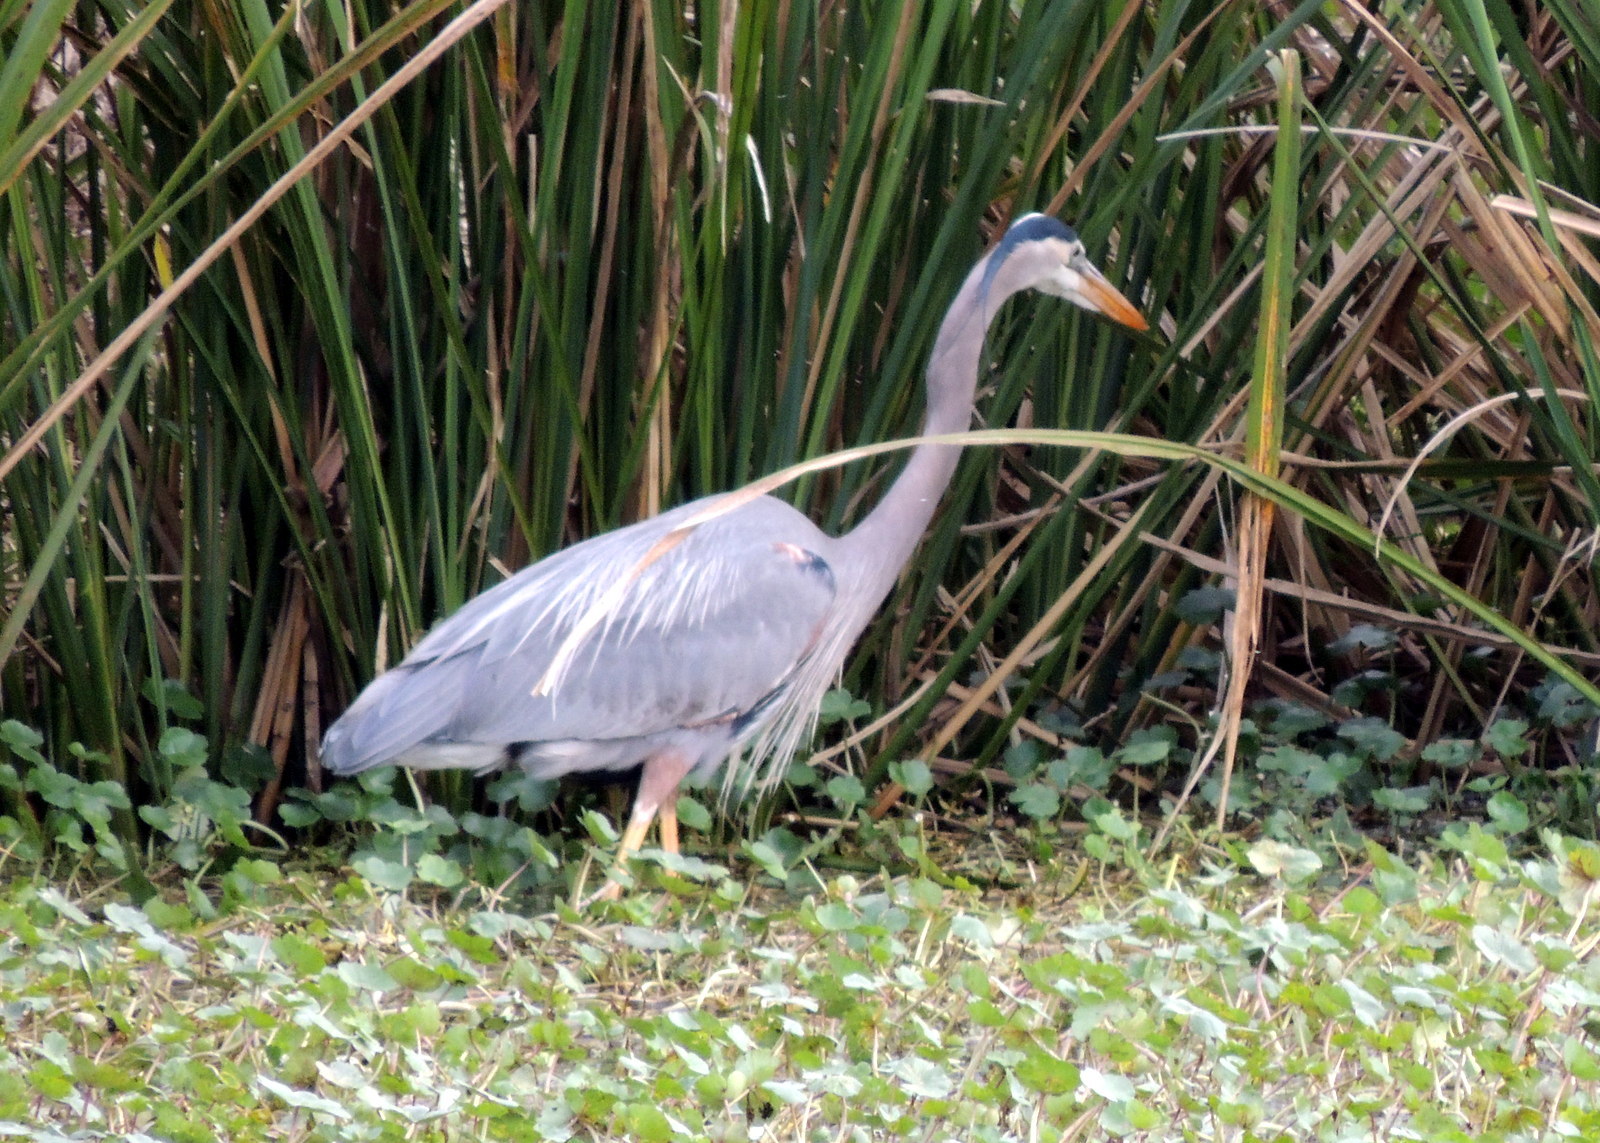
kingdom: Animalia
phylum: Chordata
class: Aves
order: Pelecaniformes
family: Ardeidae
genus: Ardea
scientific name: Ardea herodias
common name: Great blue heron
